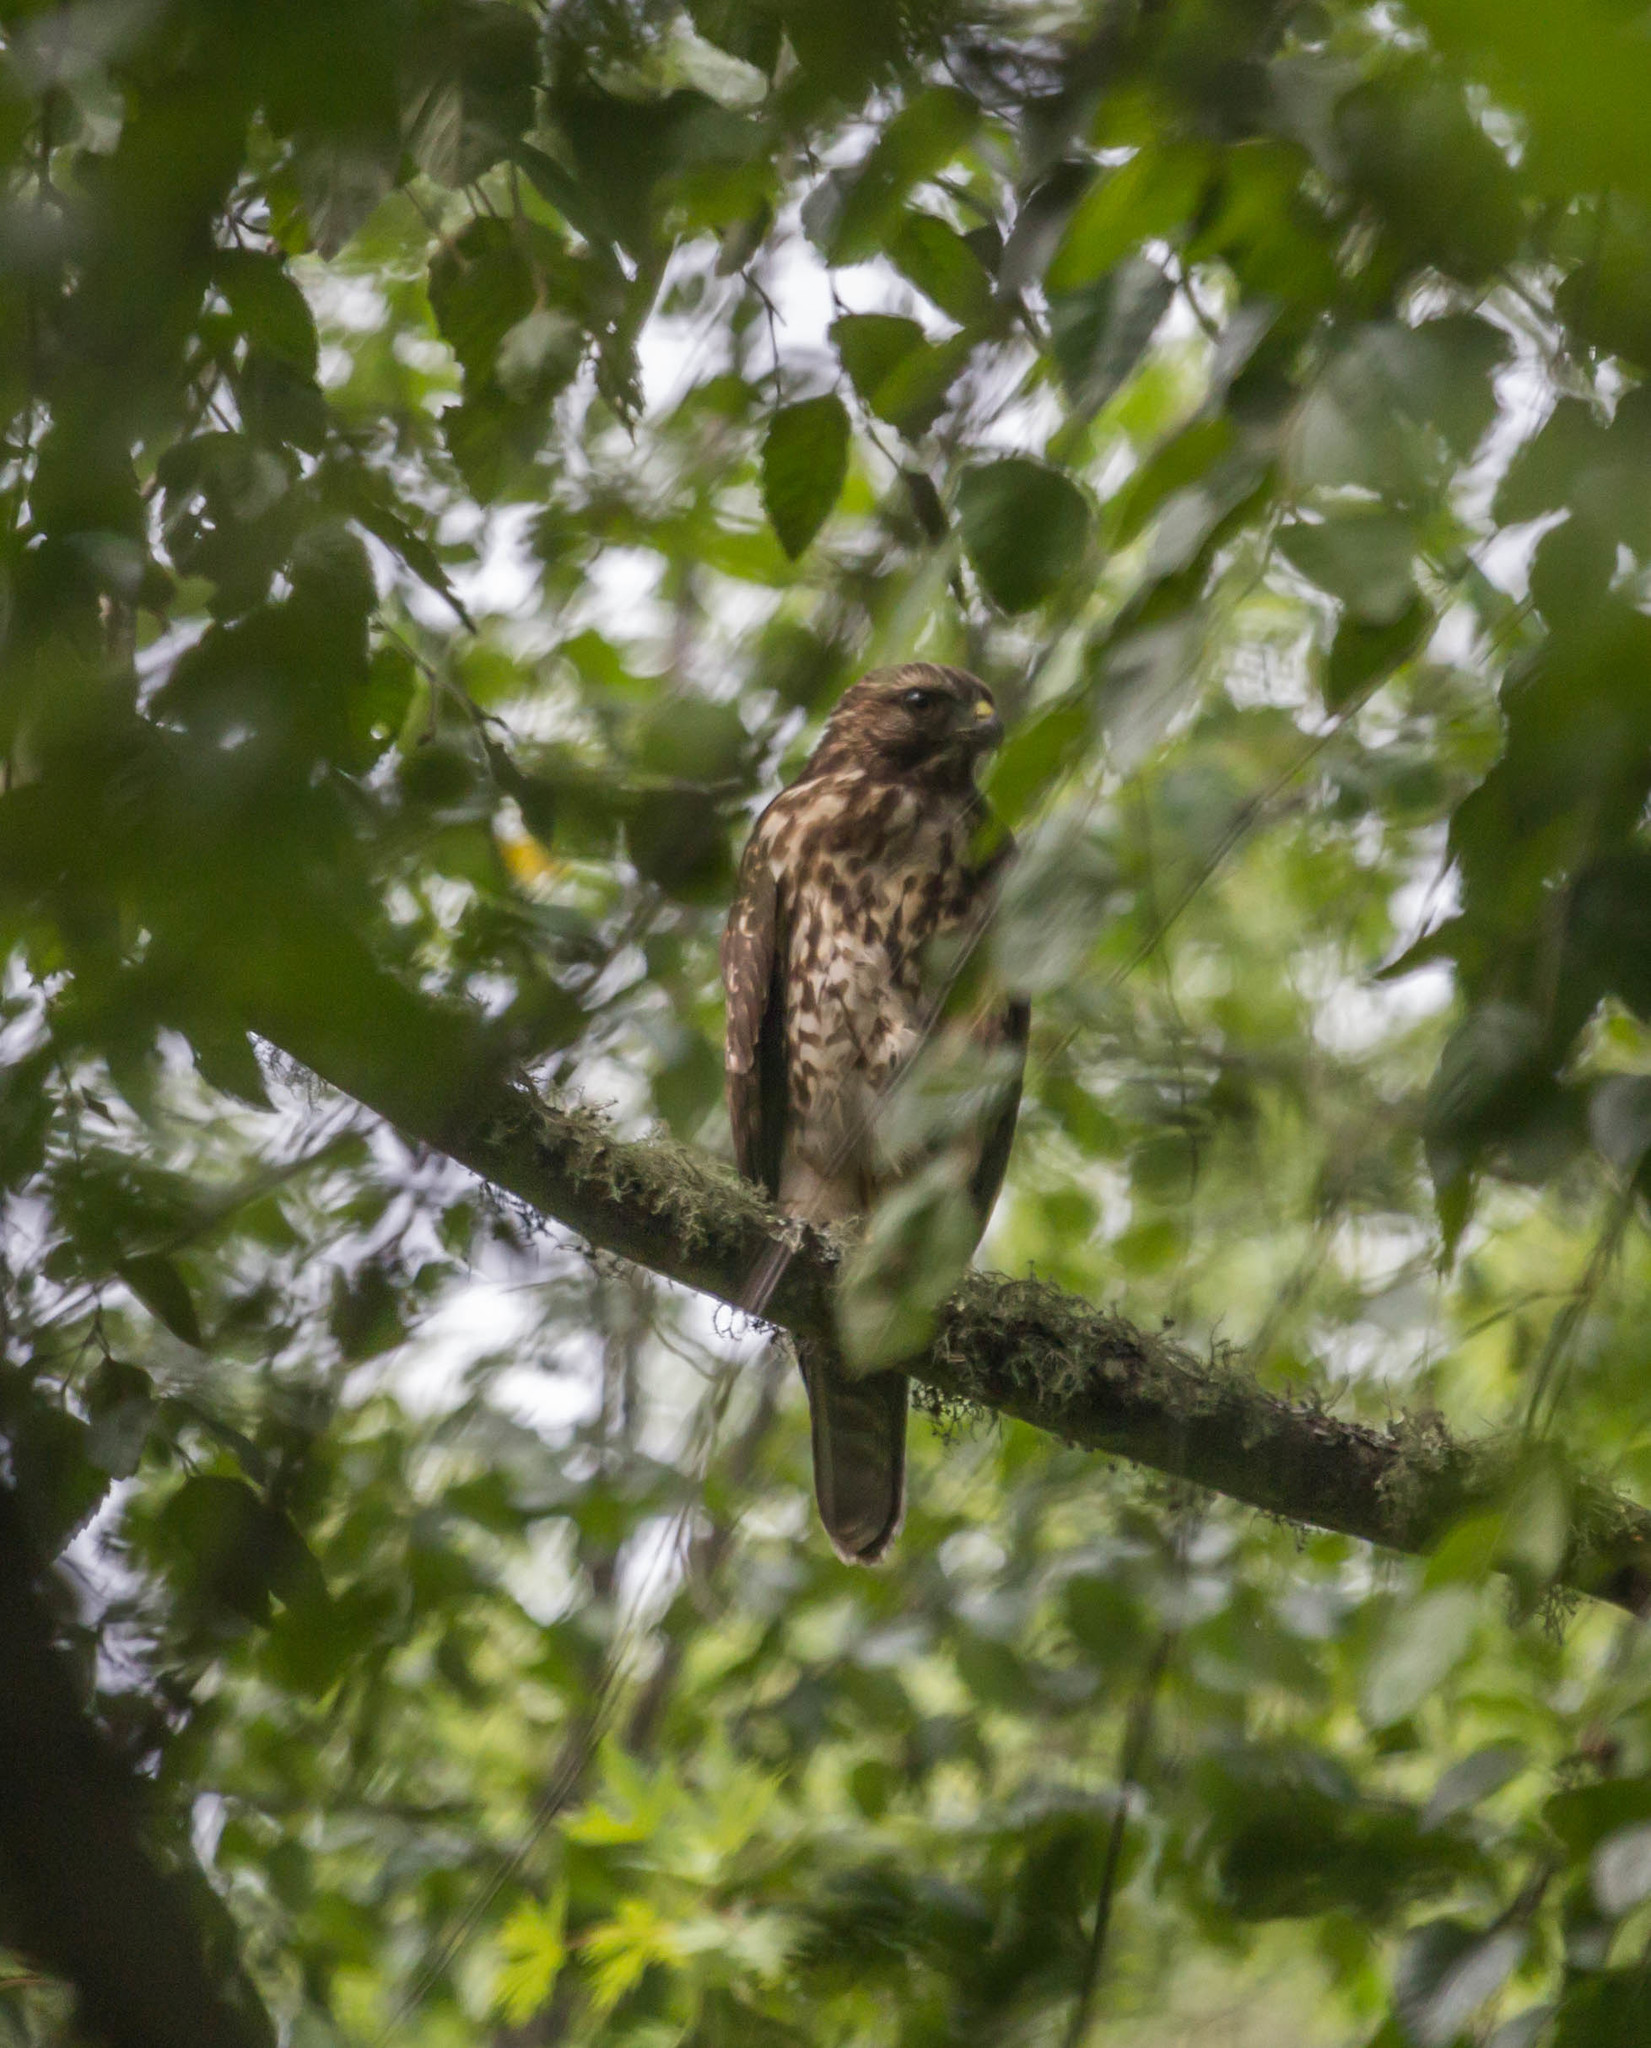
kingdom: Animalia
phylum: Chordata
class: Aves
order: Accipitriformes
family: Accipitridae
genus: Buteo
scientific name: Buteo lineatus
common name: Red-shouldered hawk
